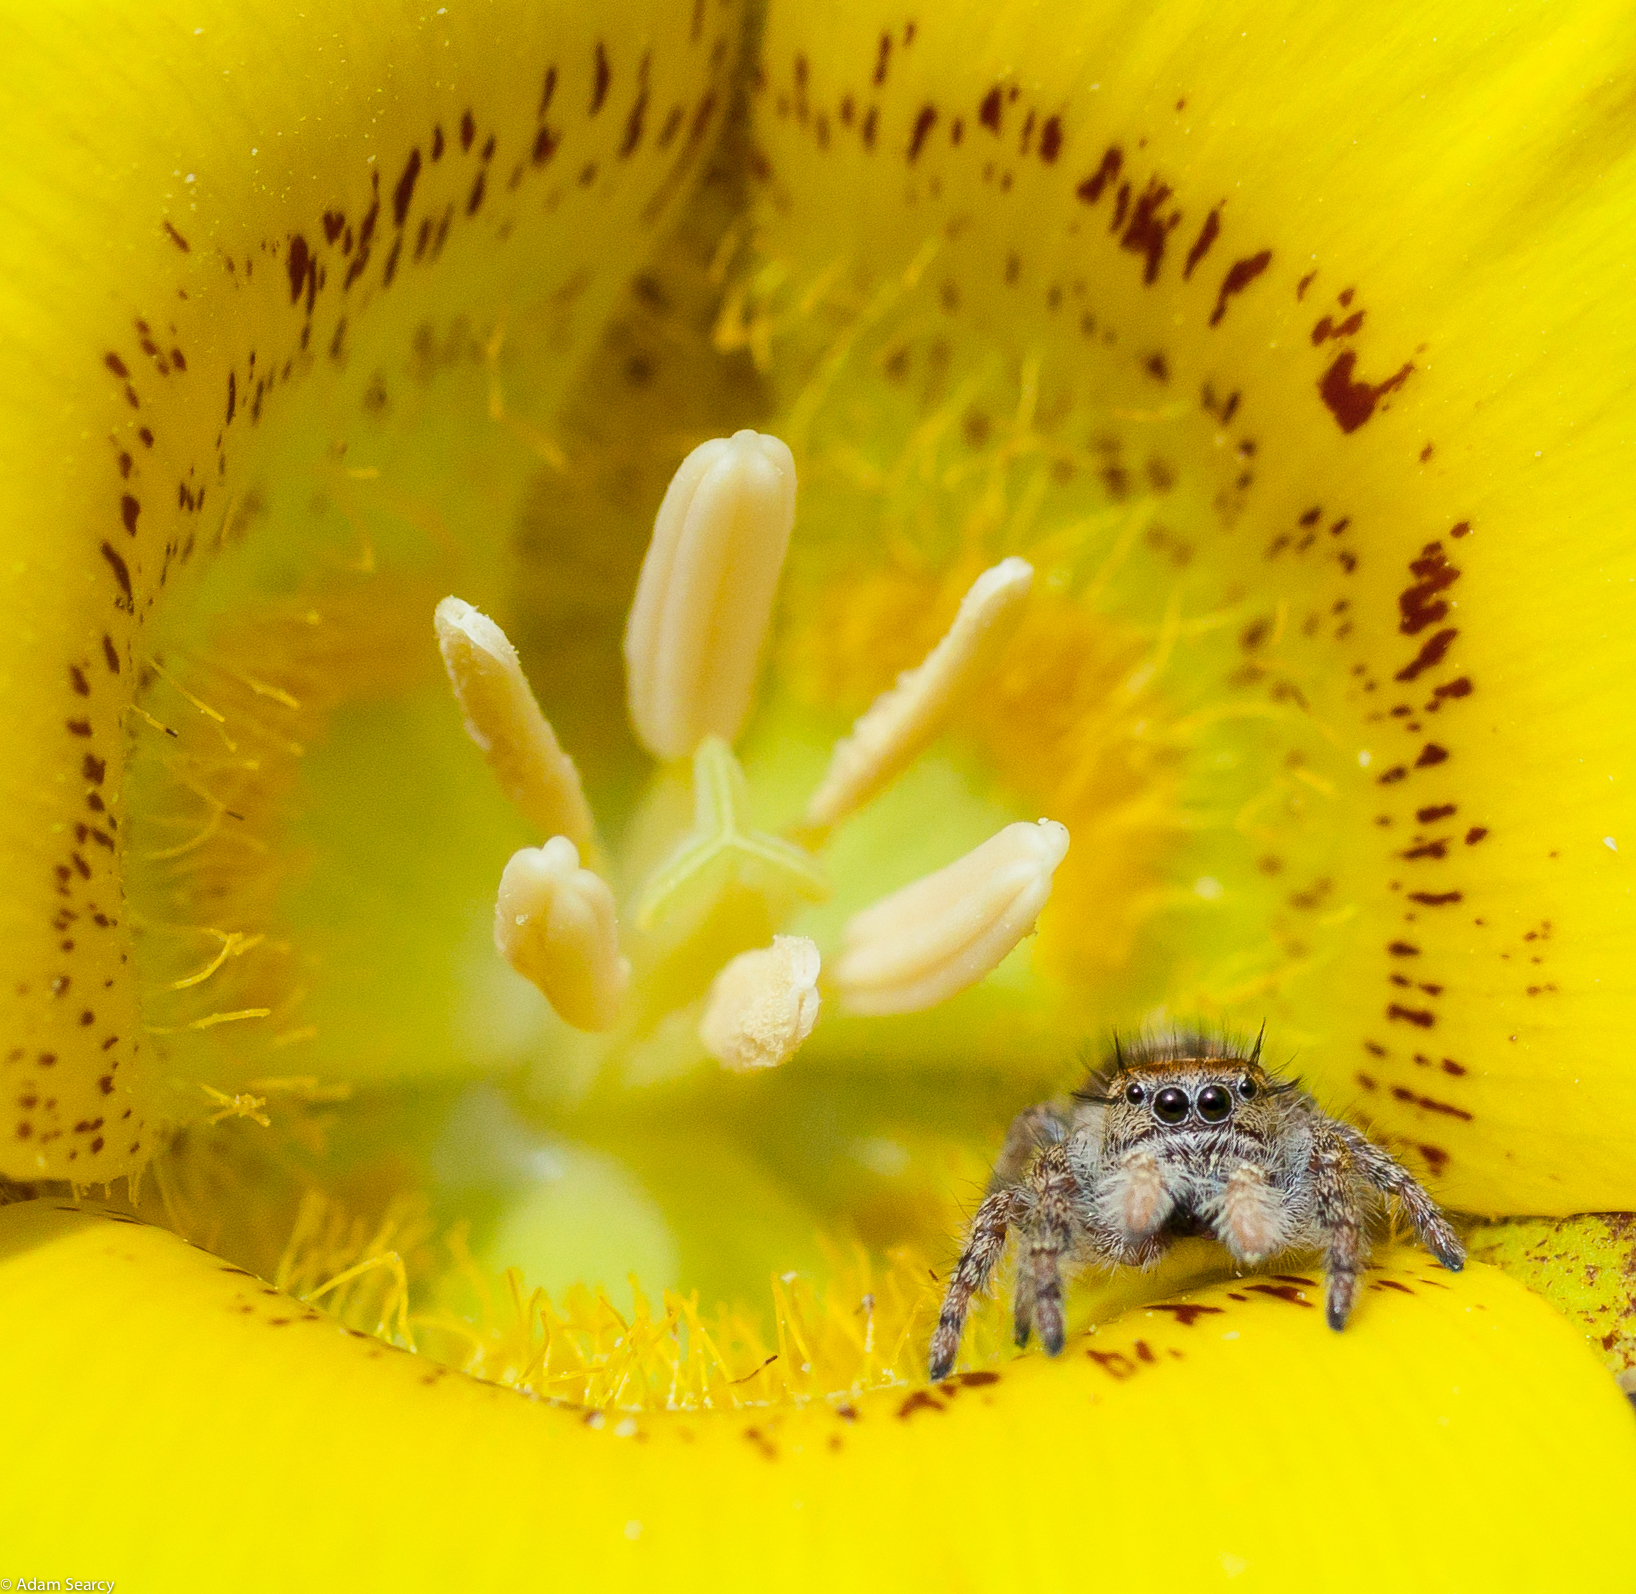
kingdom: Animalia
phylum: Arthropoda
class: Arachnida
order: Araneae
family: Salticidae
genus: Phidippus
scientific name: Phidippus comatus
